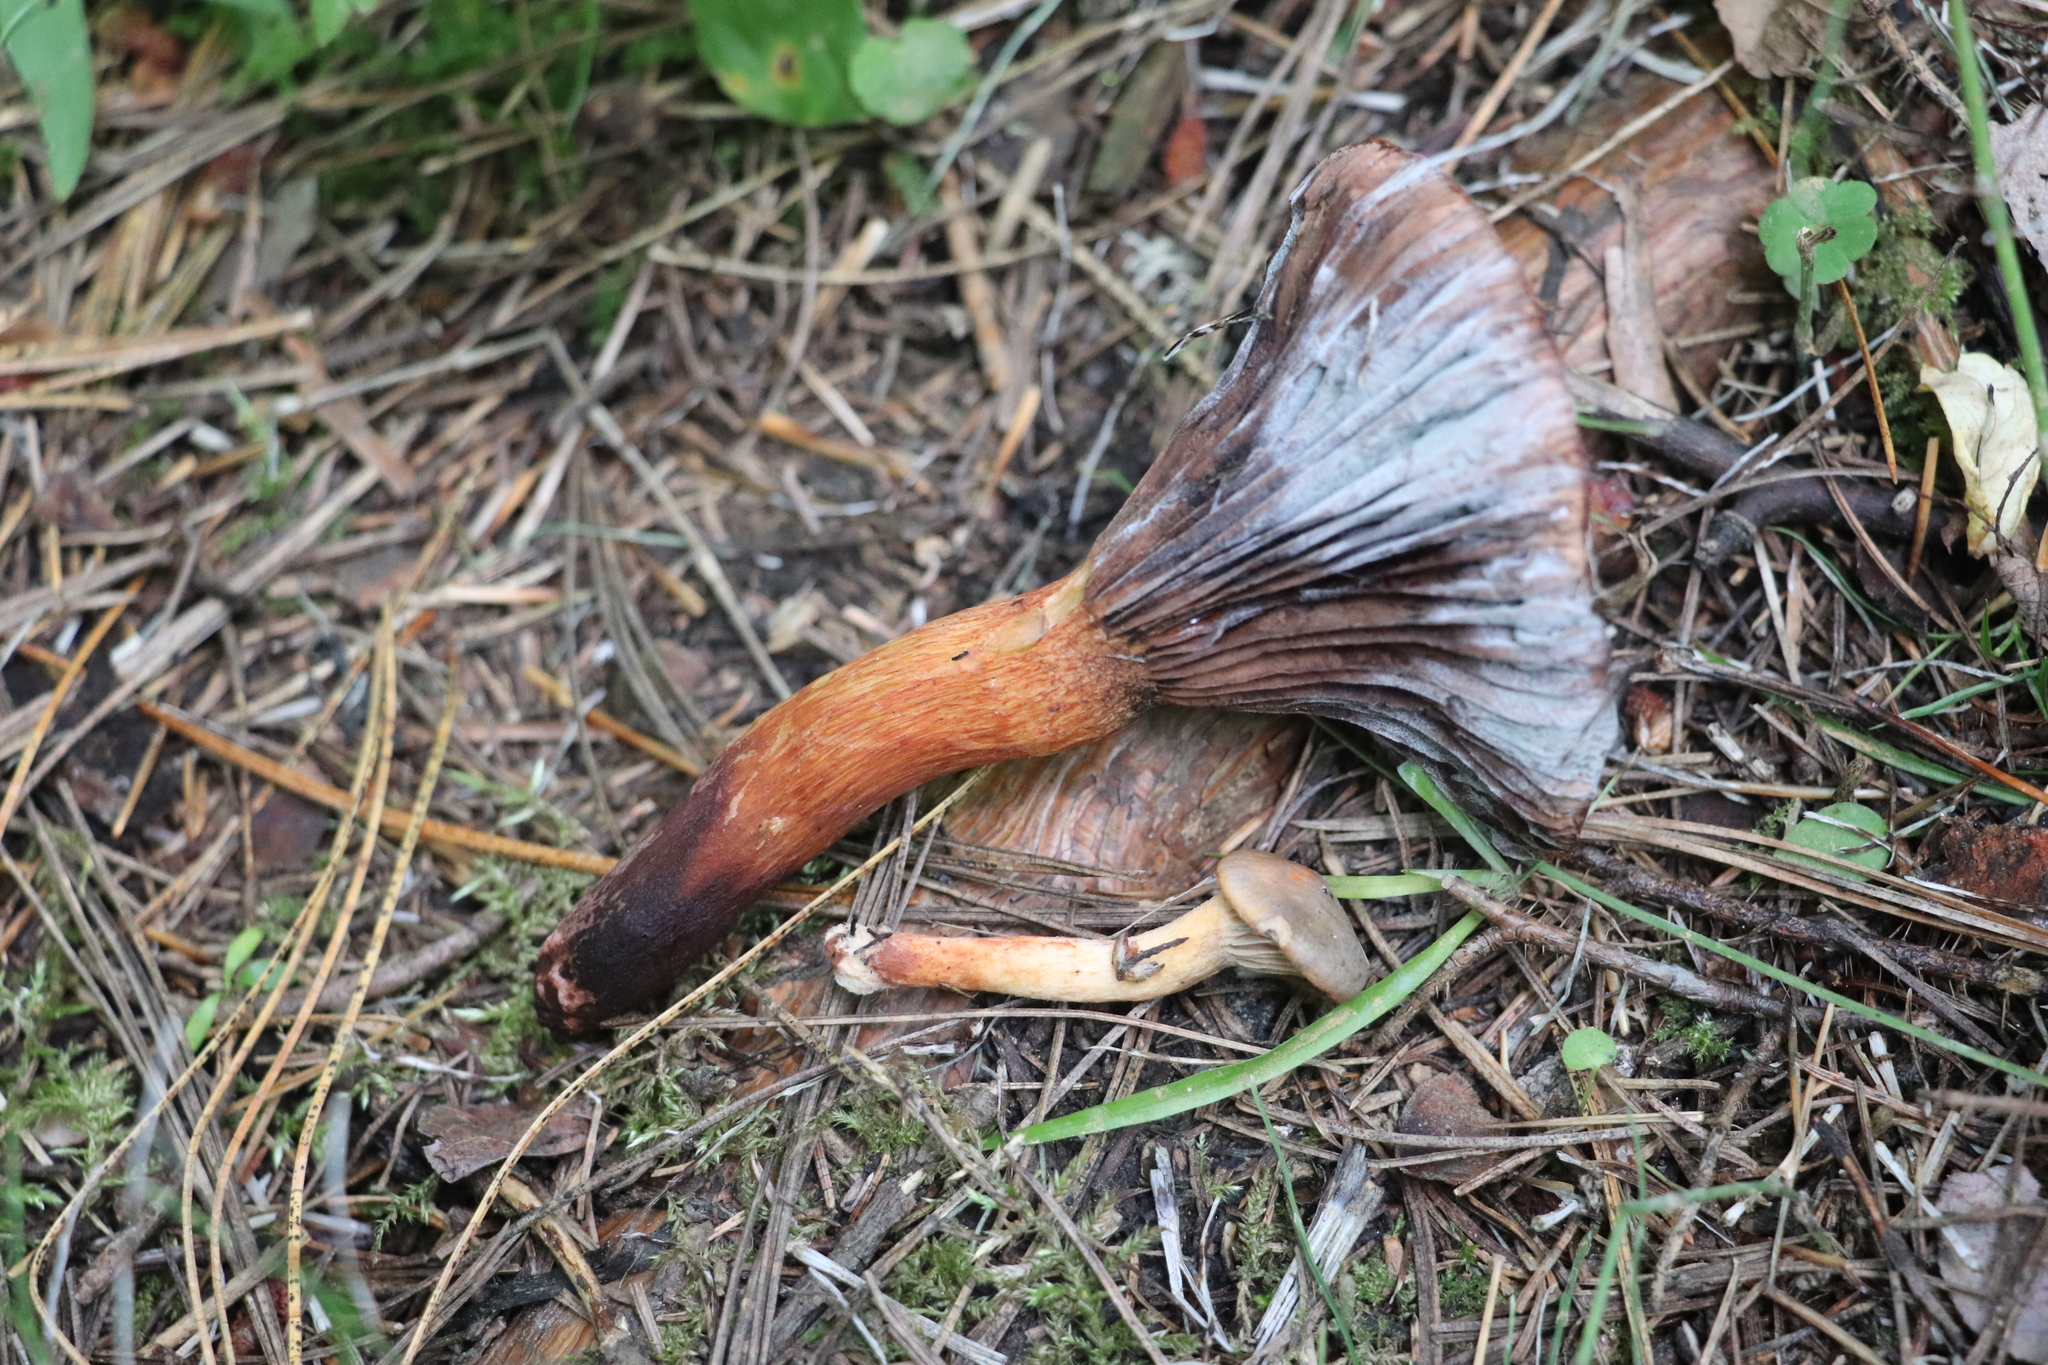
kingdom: Fungi
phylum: Basidiomycota
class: Agaricomycetes
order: Boletales
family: Gomphidiaceae
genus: Chroogomphus
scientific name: Chroogomphus rutilus
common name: Copper spike
